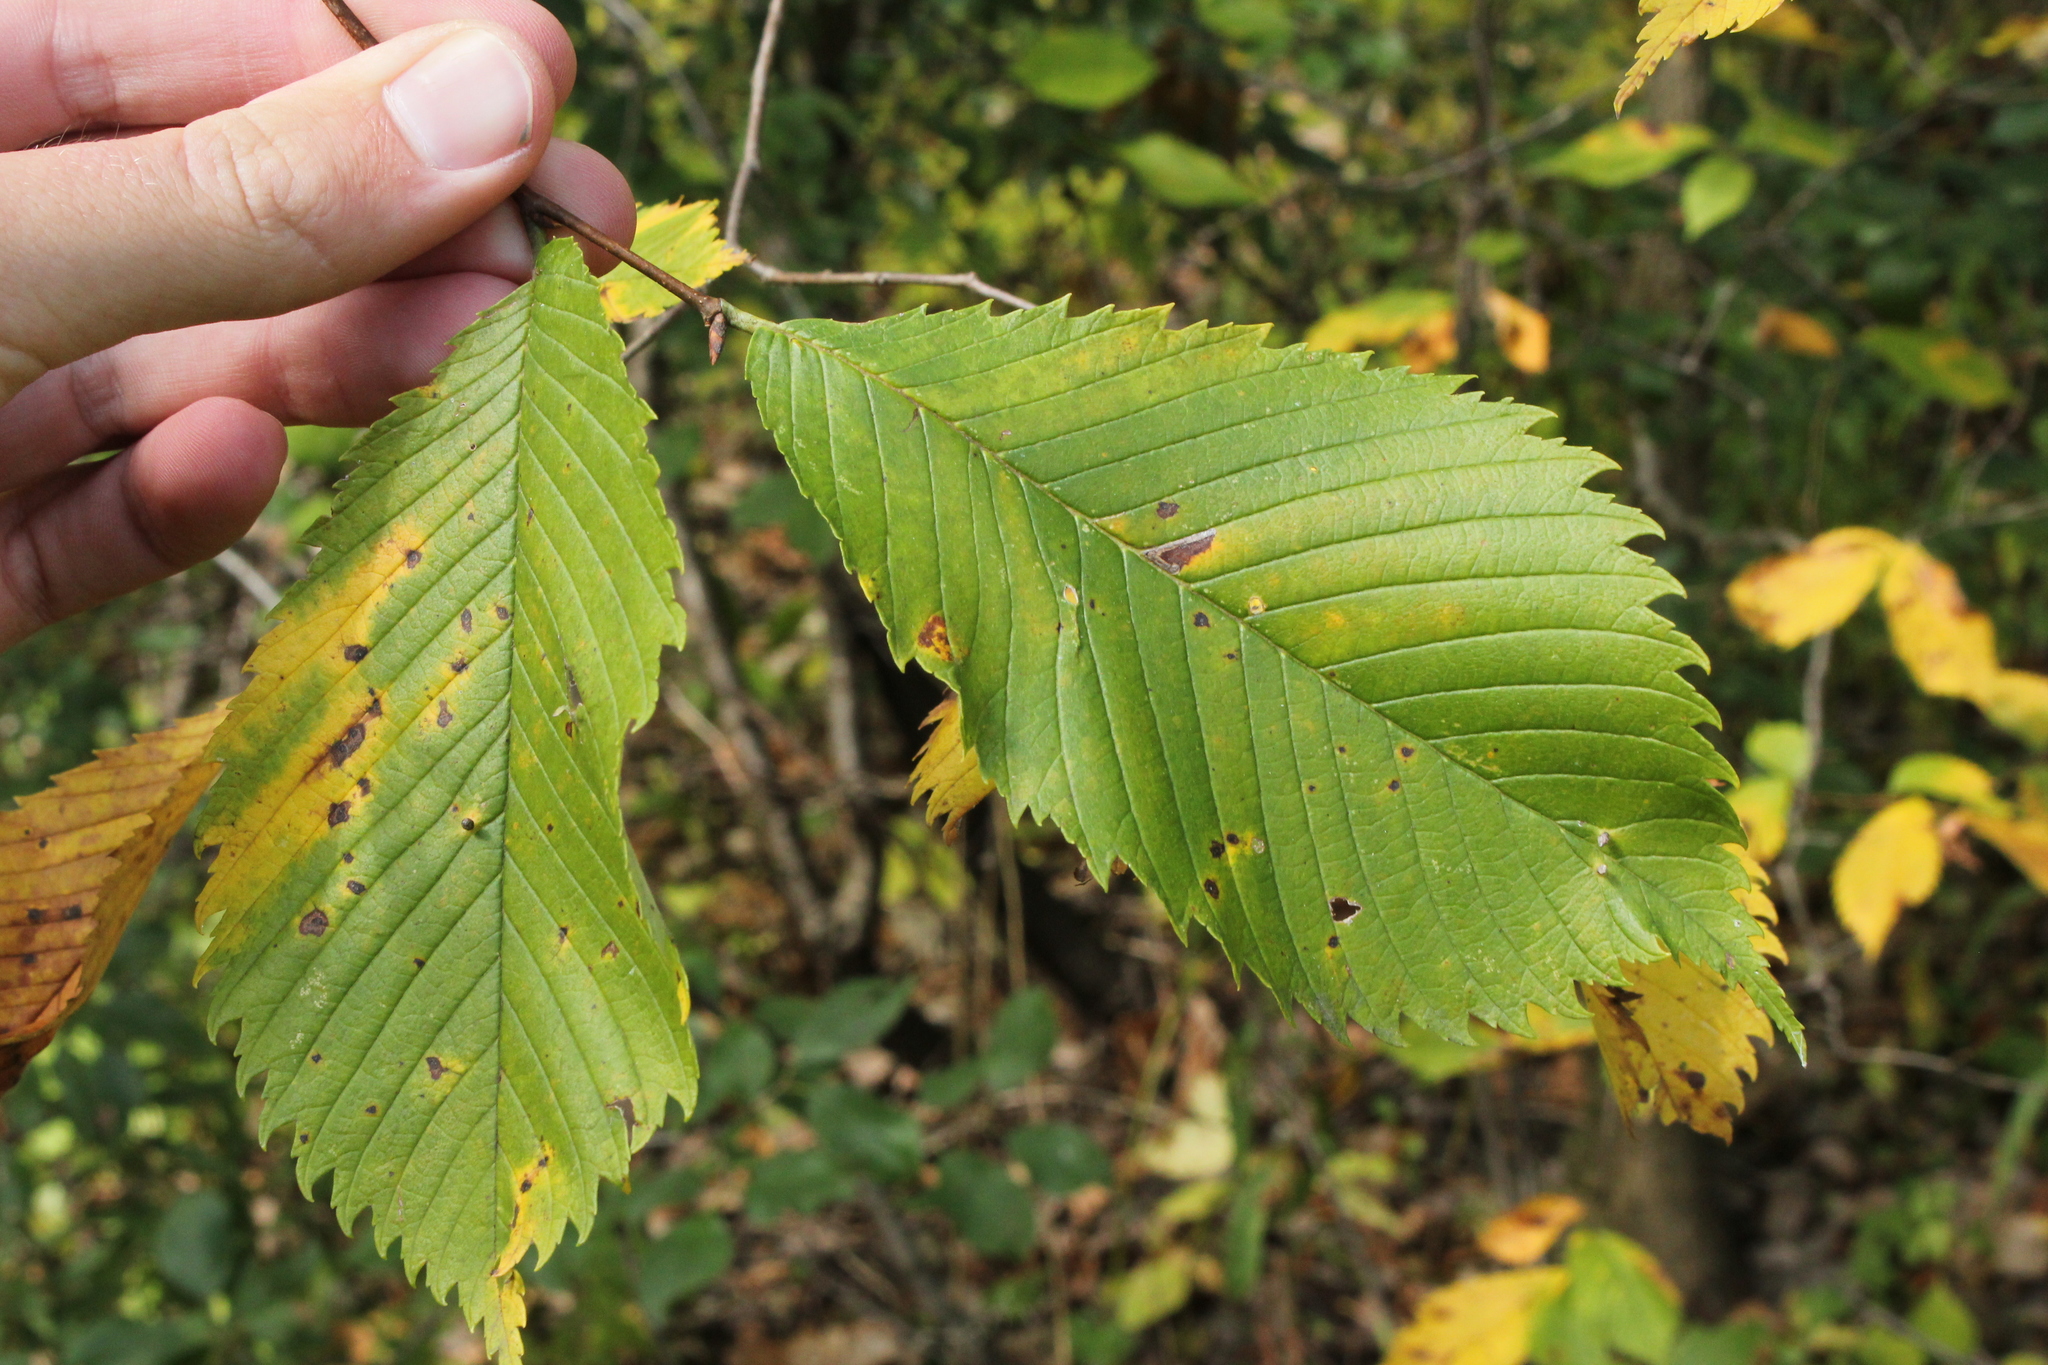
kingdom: Plantae
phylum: Tracheophyta
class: Magnoliopsida
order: Rosales
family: Ulmaceae
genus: Ulmus
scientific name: Ulmus americana
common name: American elm
